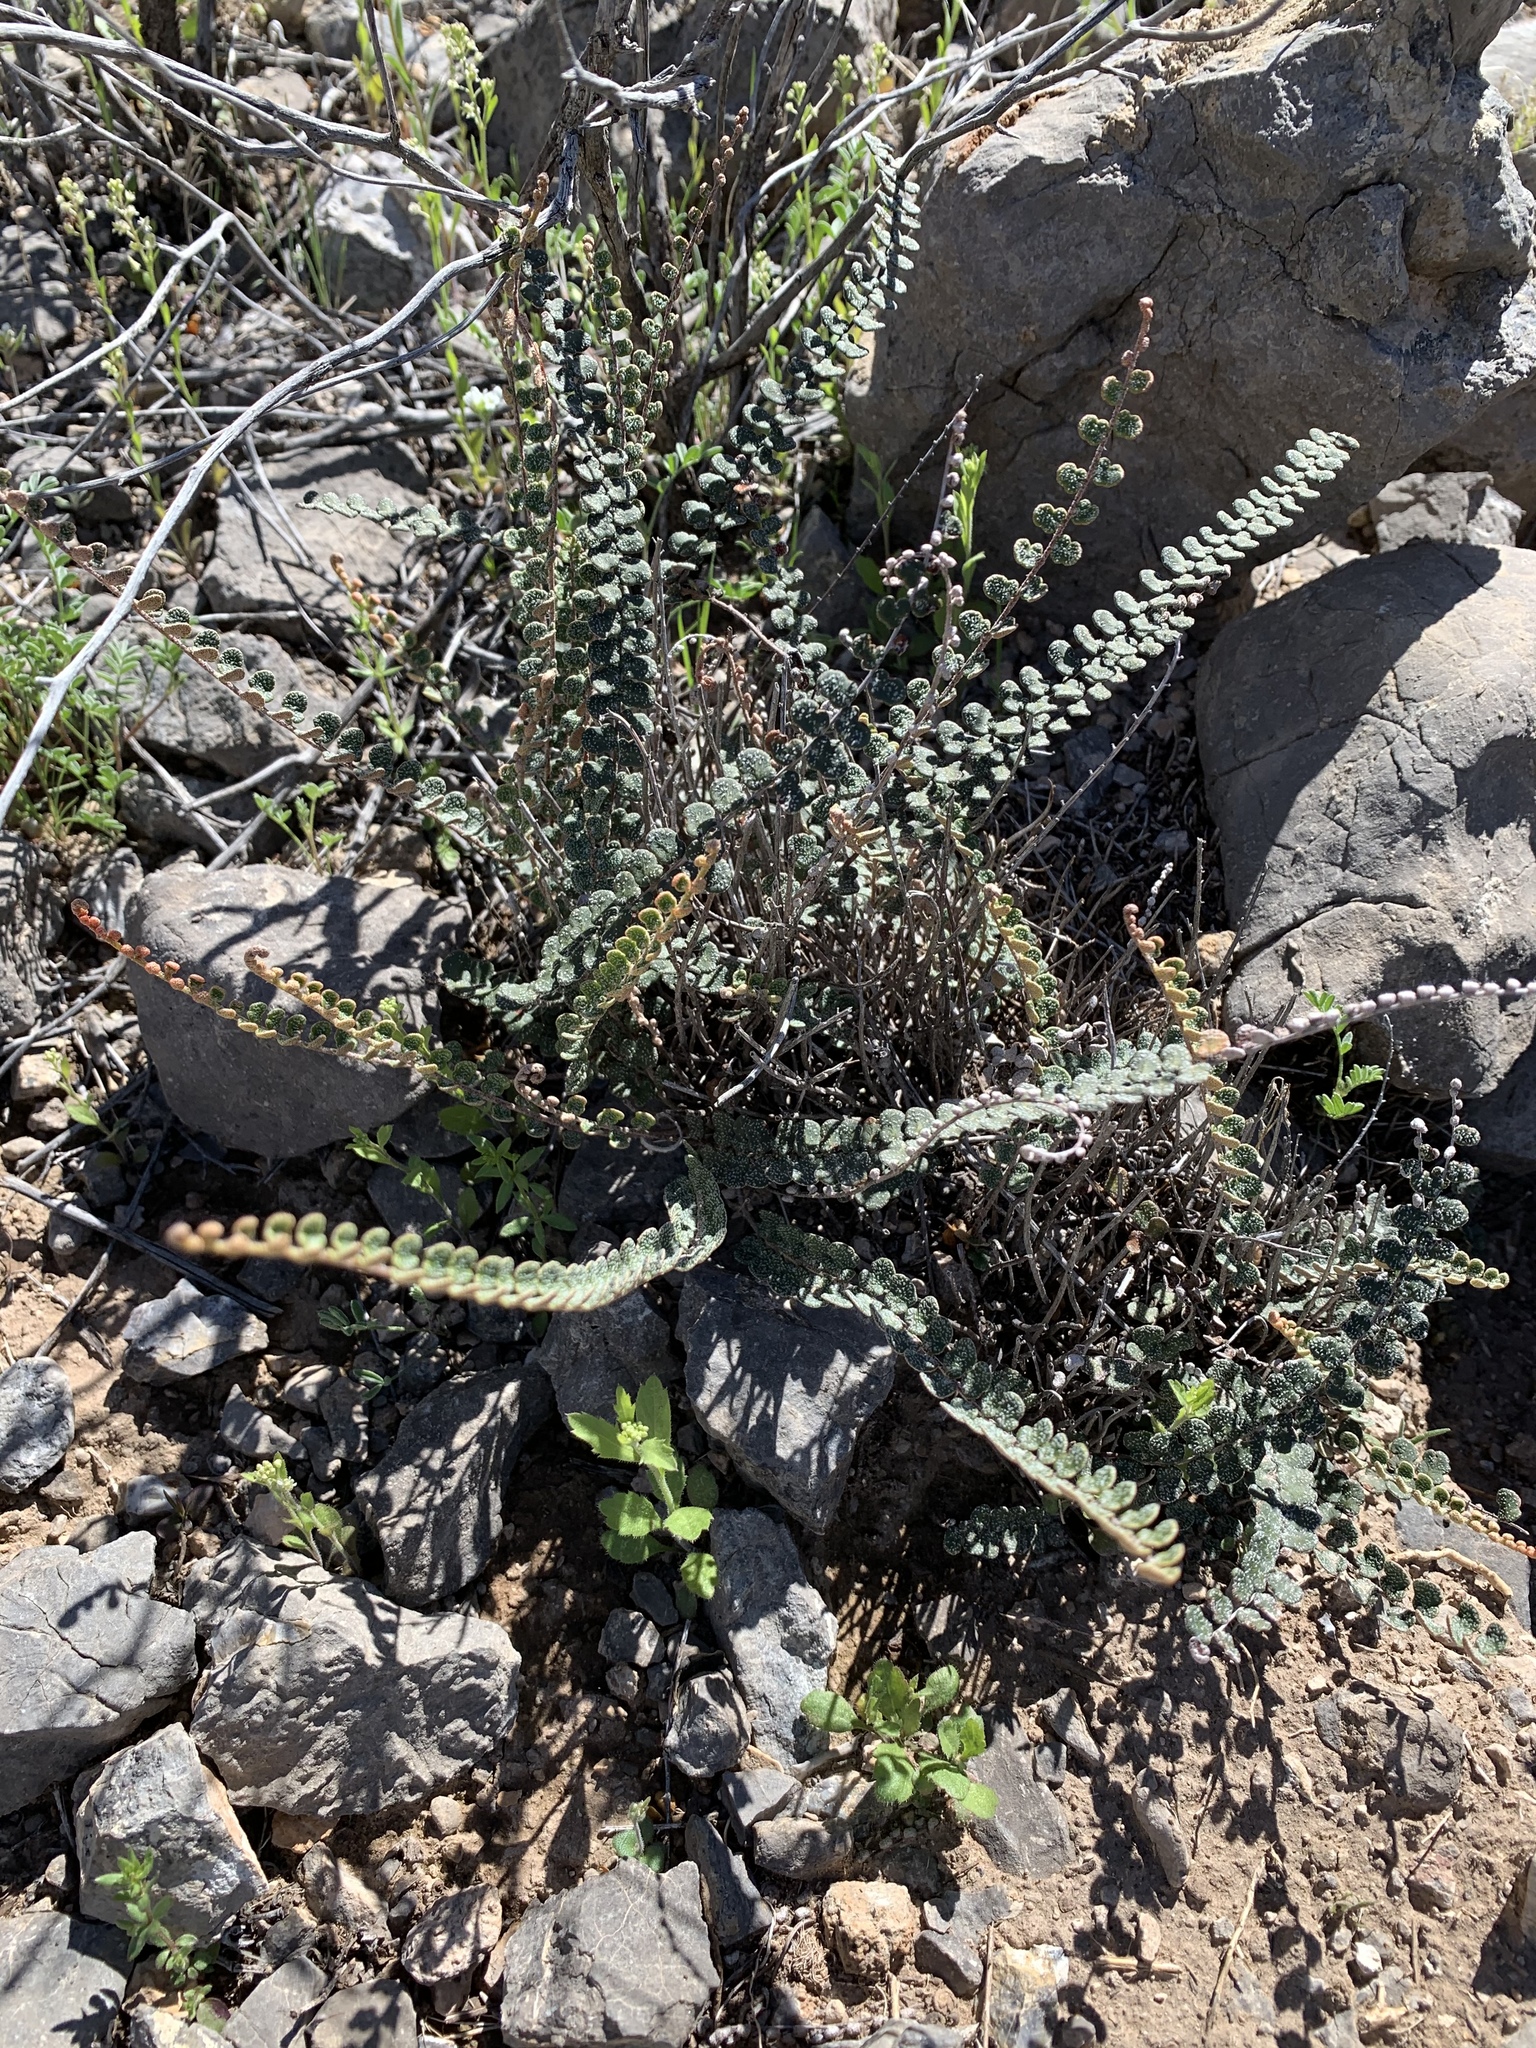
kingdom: Plantae
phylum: Tracheophyta
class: Polypodiopsida
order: Polypodiales
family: Pteridaceae
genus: Astrolepis
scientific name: Astrolepis cochisensis
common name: Scaly cloak fern
